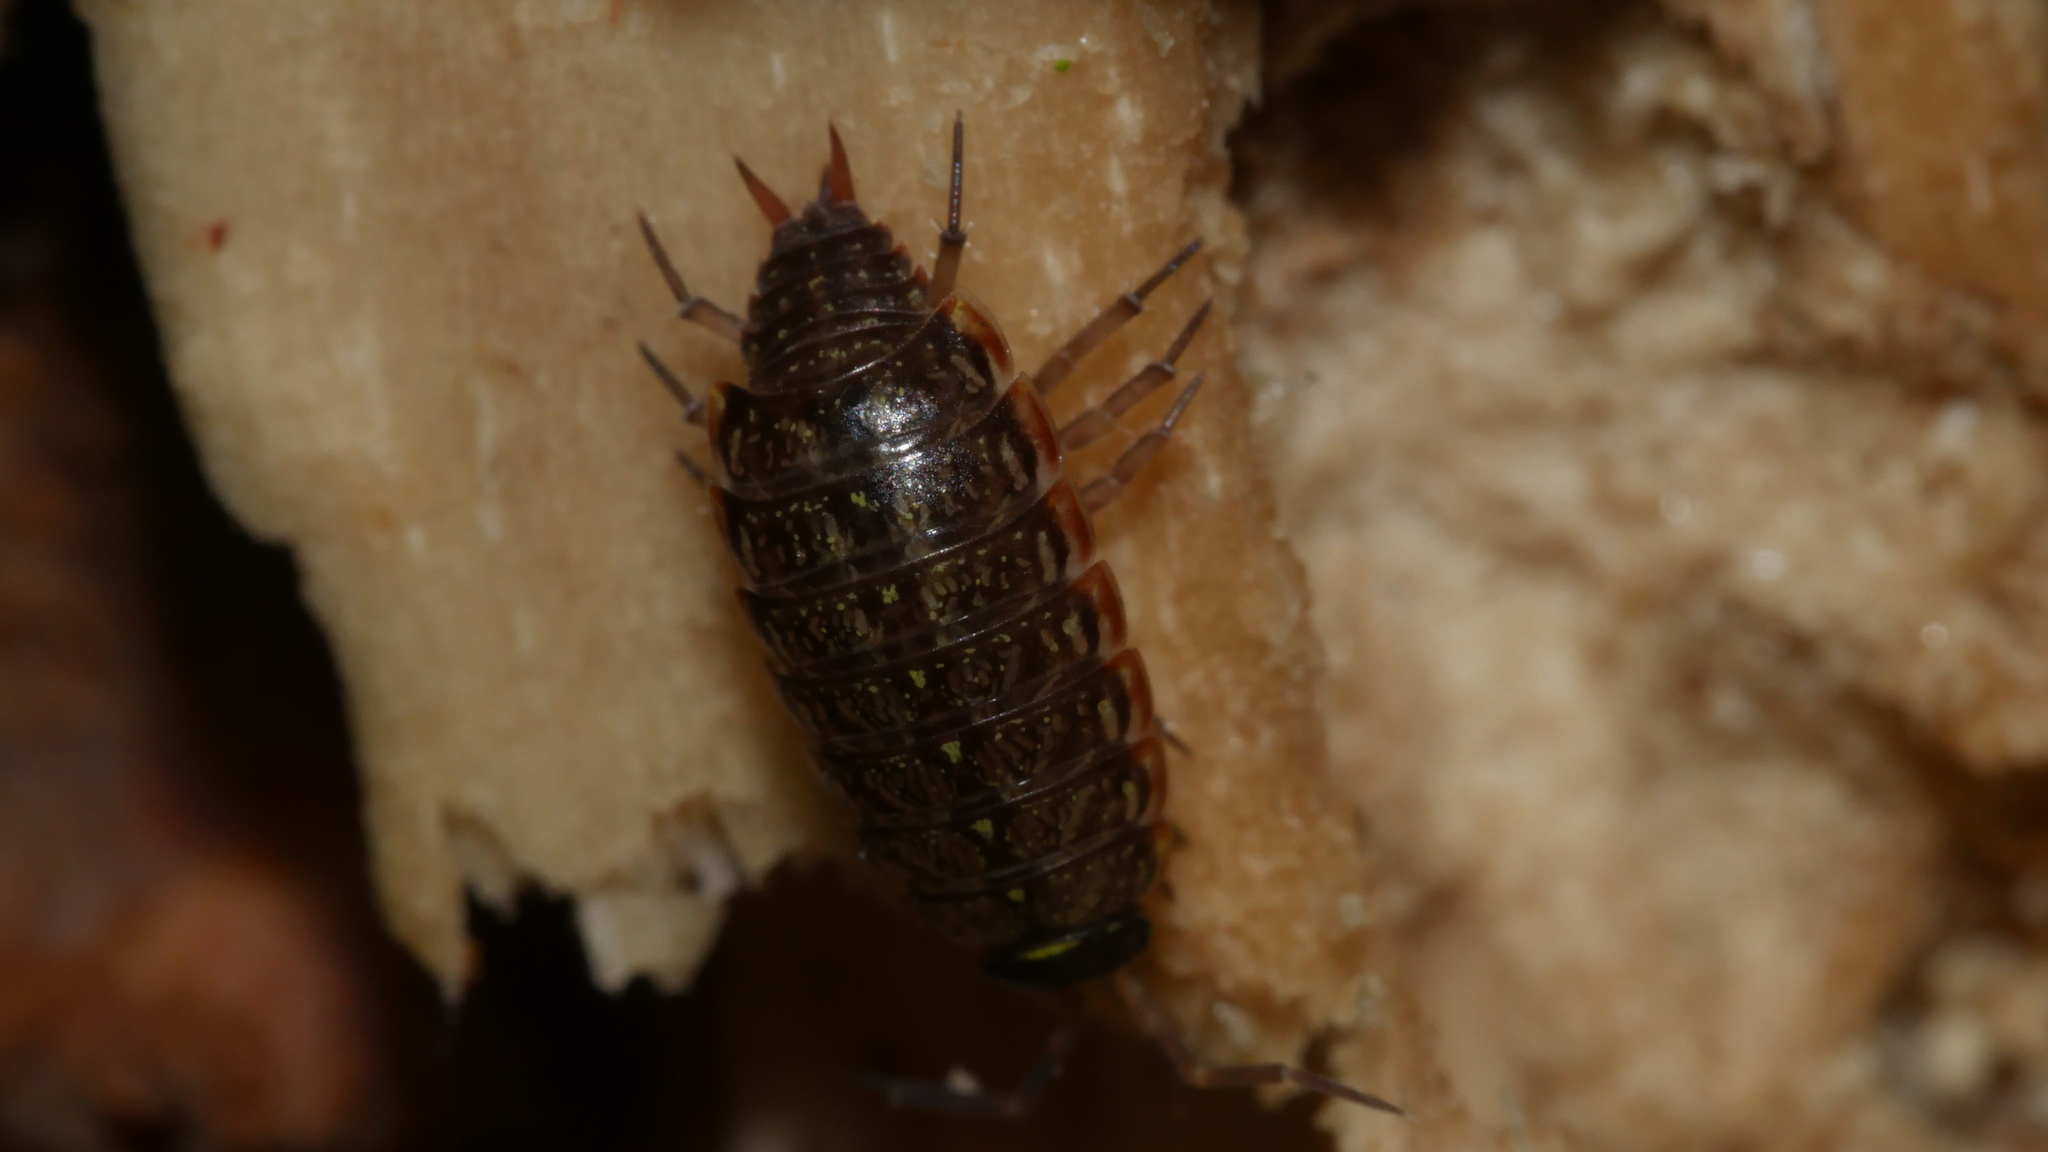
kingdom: Animalia
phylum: Arthropoda
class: Malacostraca
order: Isopoda
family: Philosciidae
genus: Philoscia
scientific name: Philoscia muscorum
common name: Common striped woodlouse
